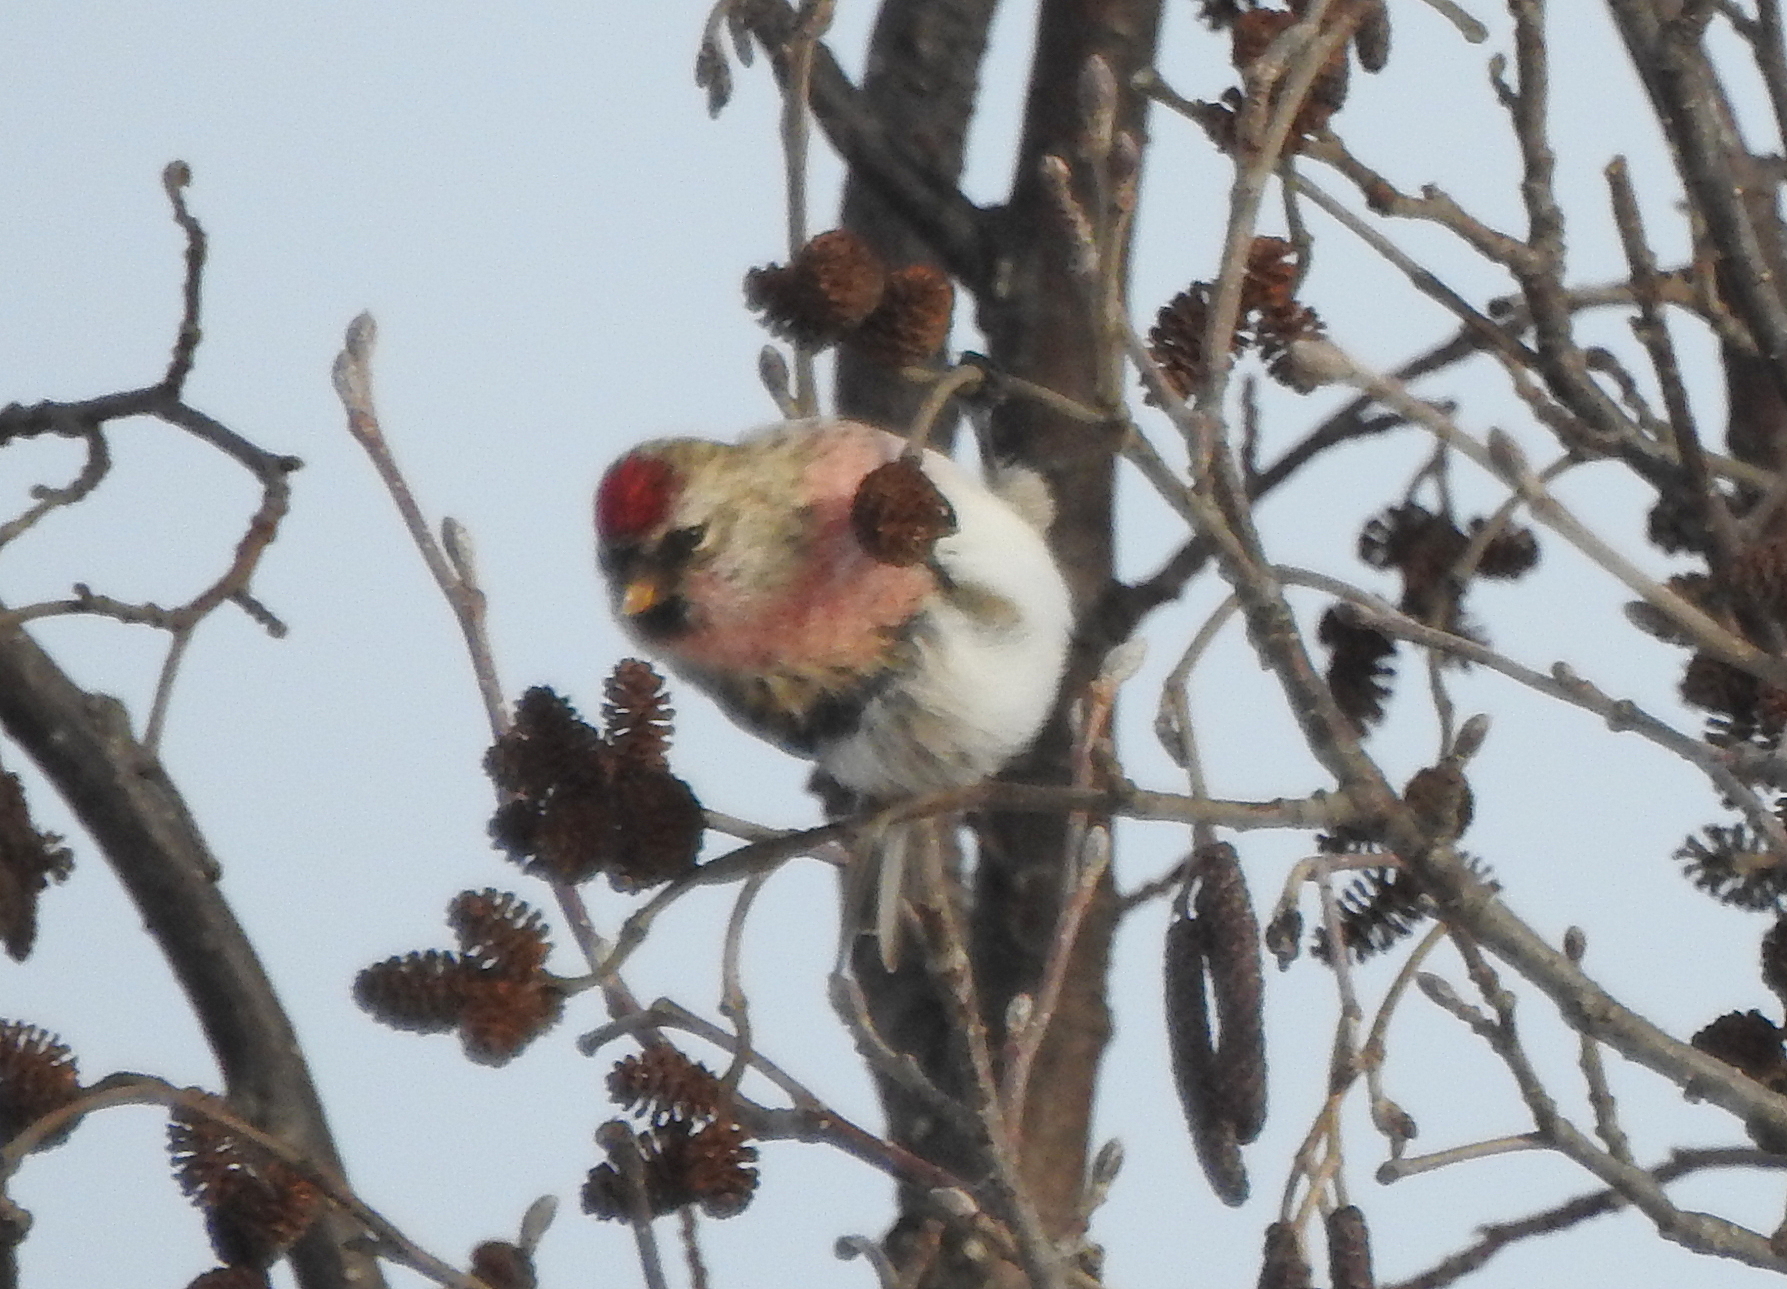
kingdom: Animalia
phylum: Chordata
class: Aves
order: Passeriformes
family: Fringillidae
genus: Acanthis
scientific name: Acanthis flammea
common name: Common redpoll
